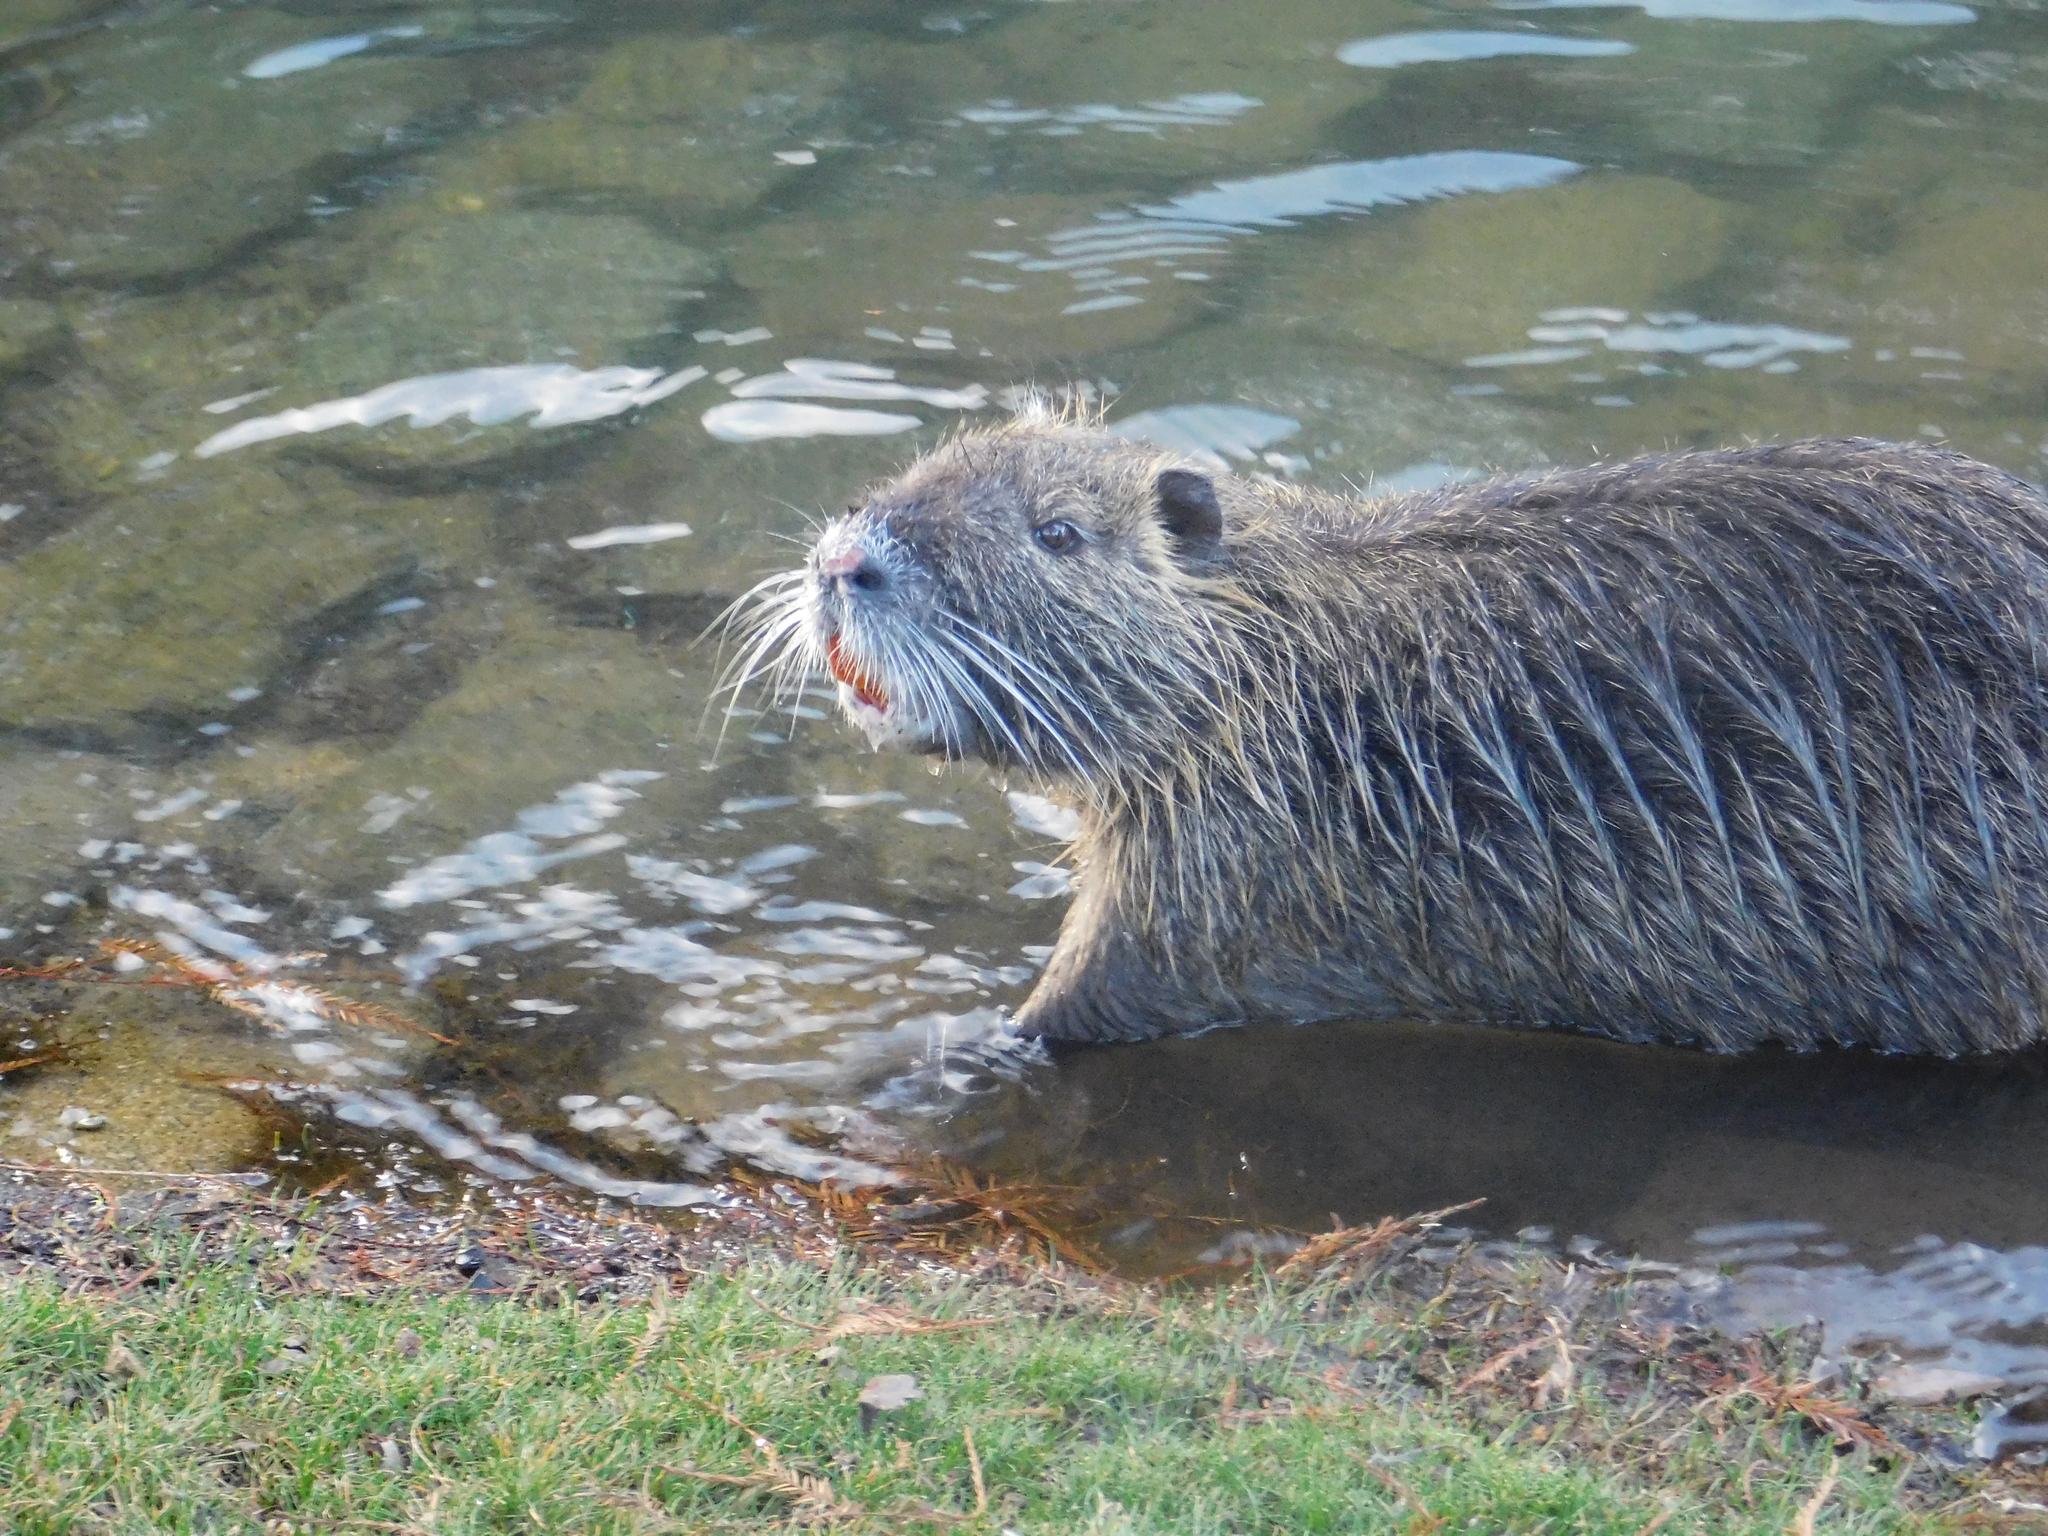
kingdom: Animalia
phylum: Chordata
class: Mammalia
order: Rodentia
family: Myocastoridae
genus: Myocastor
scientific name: Myocastor coypus
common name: Coypu
